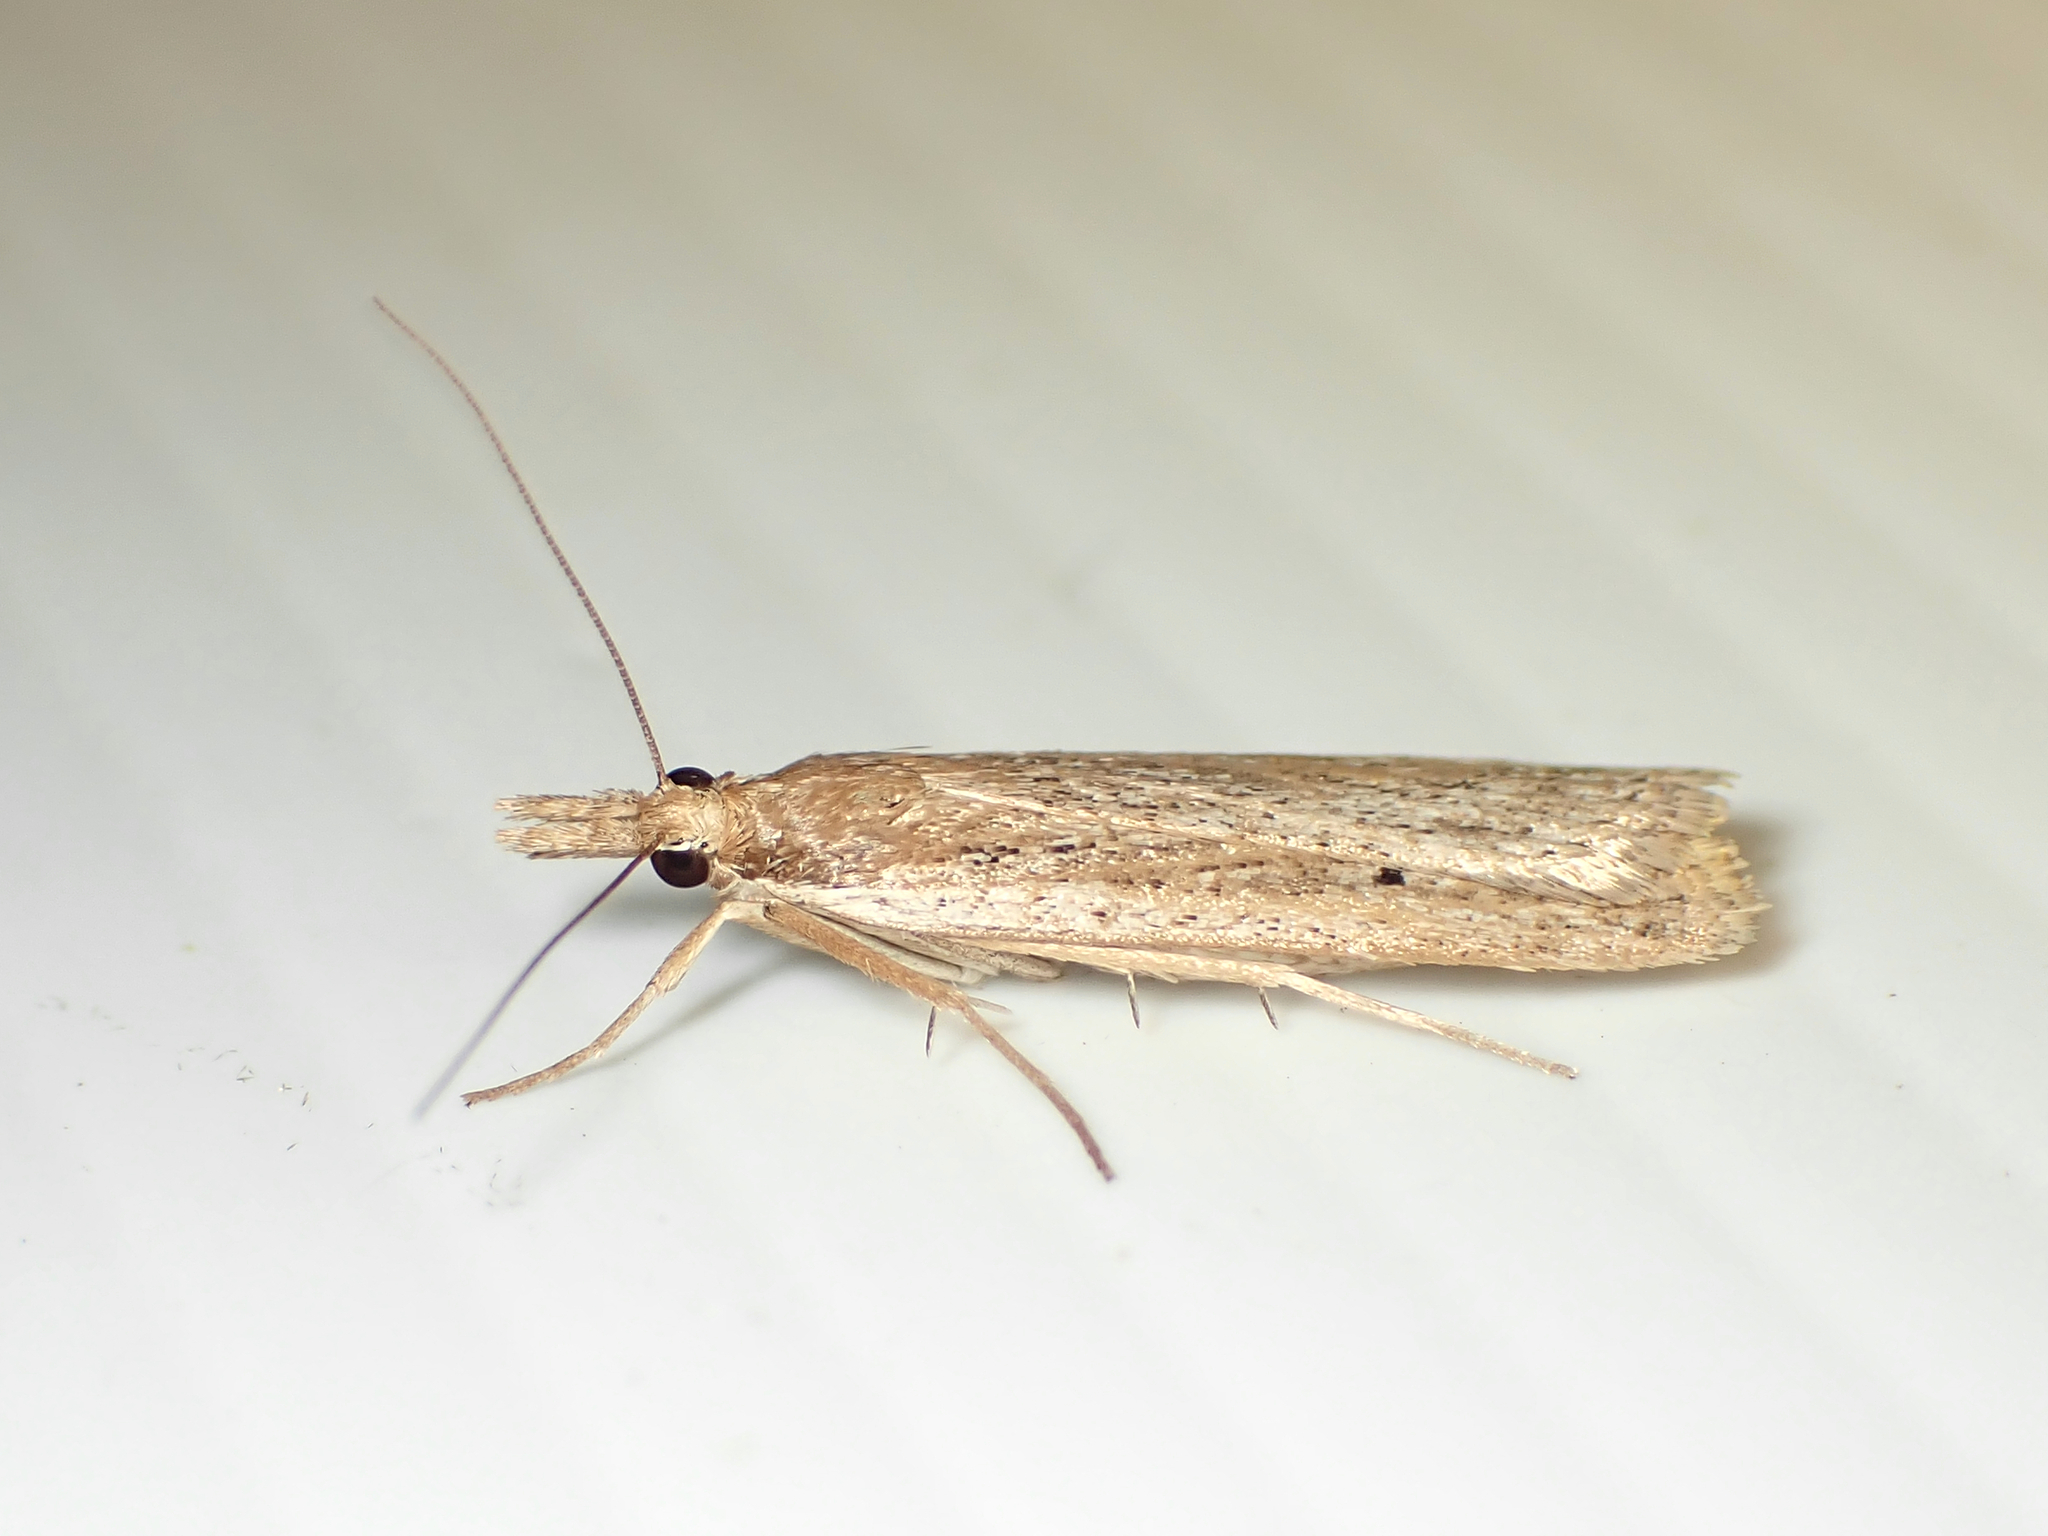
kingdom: Animalia
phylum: Arthropoda
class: Insecta
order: Lepidoptera
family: Crambidae
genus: Eudonia
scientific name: Eudonia sabulosella
